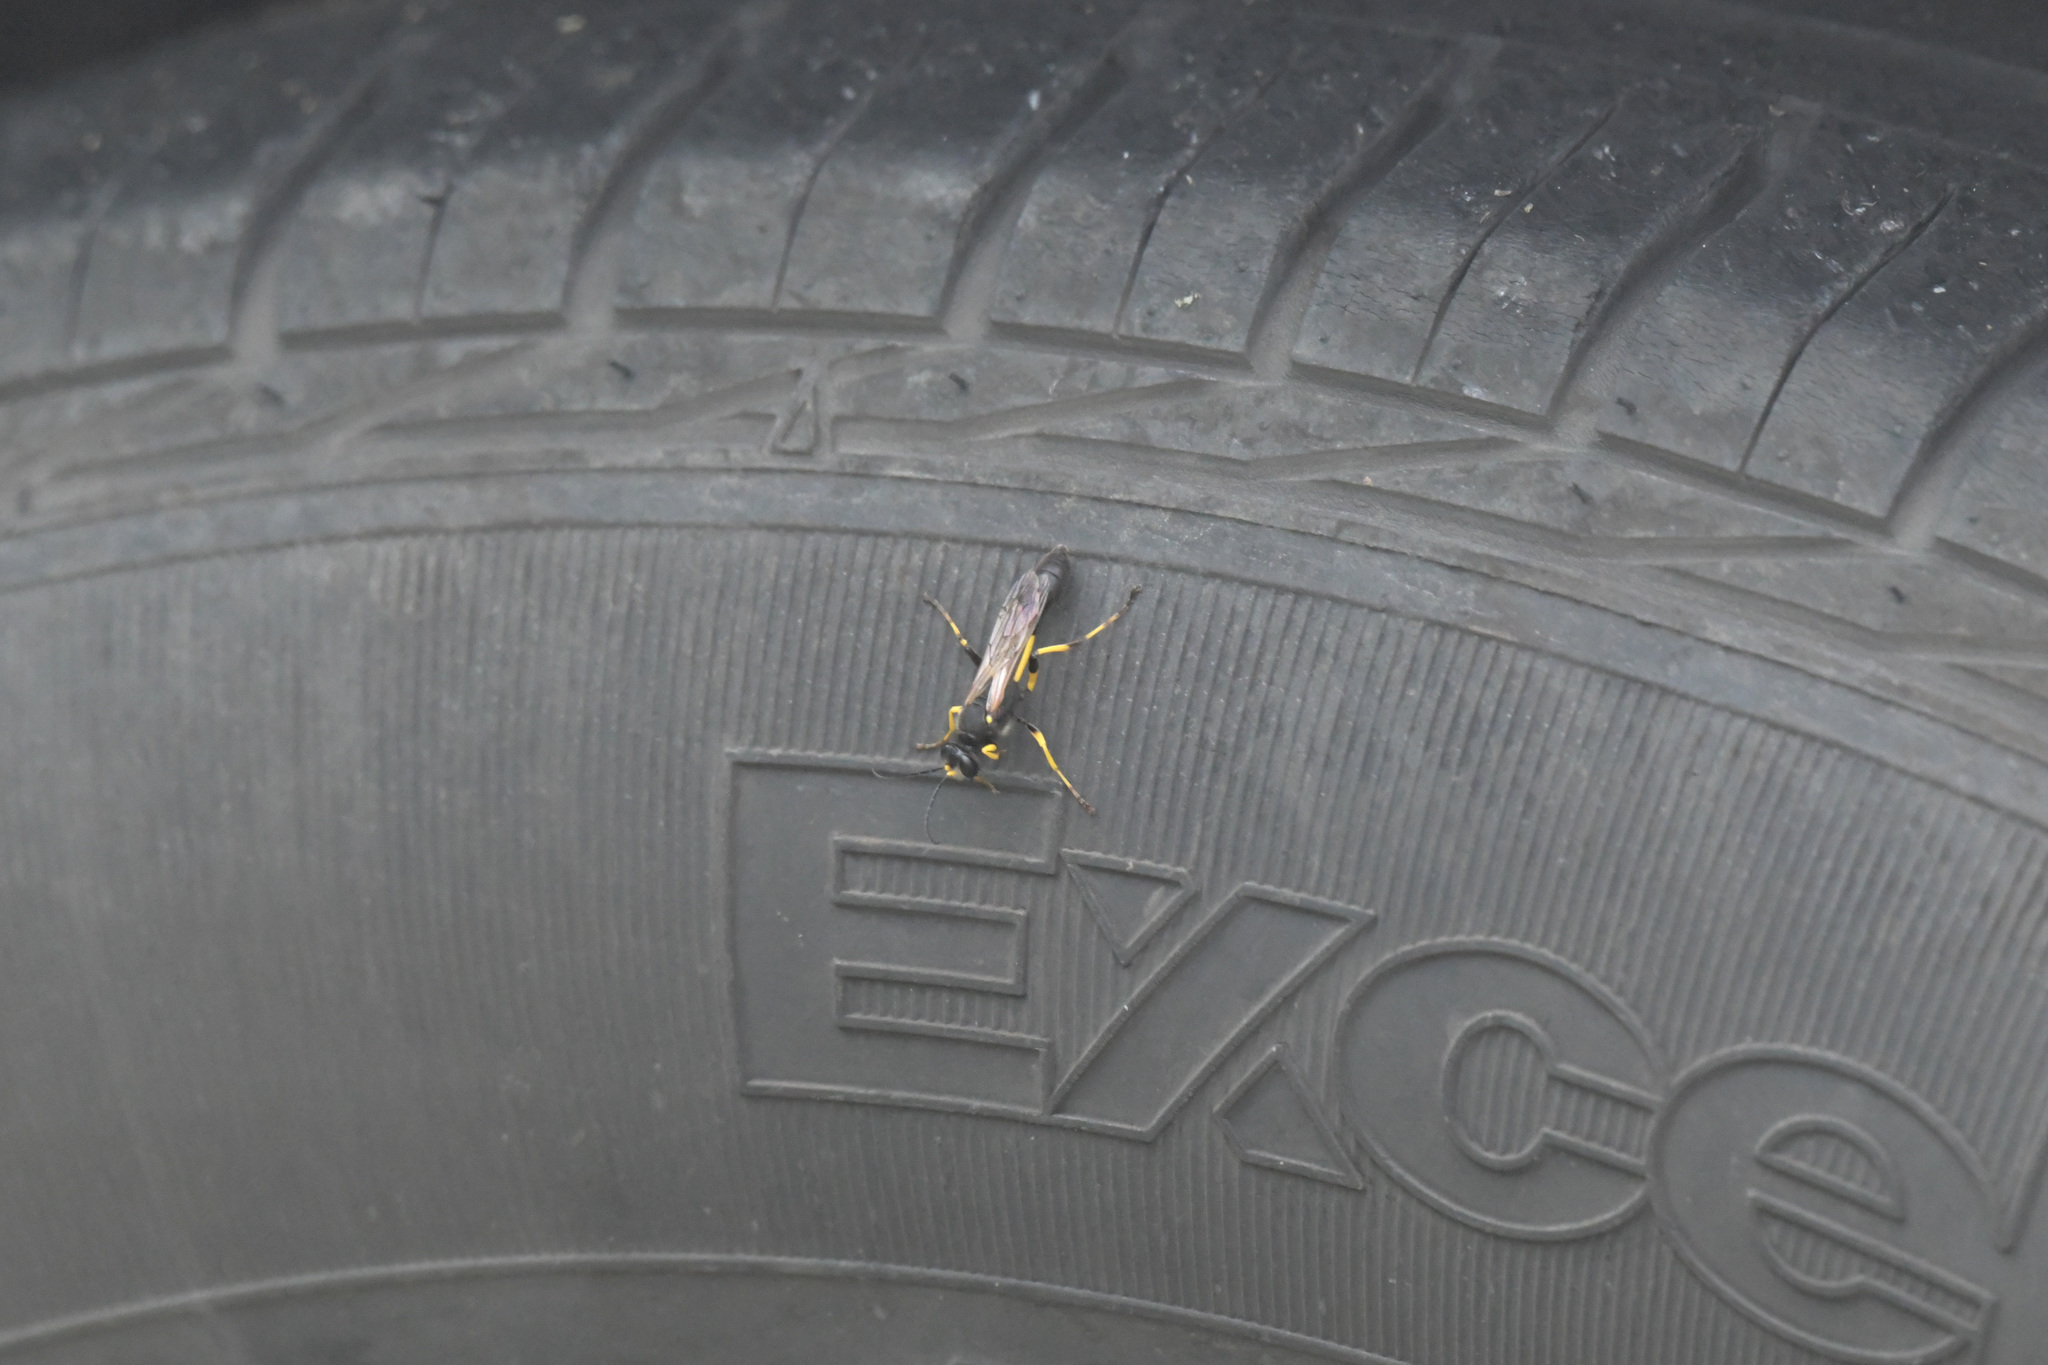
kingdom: Animalia
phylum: Arthropoda
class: Insecta
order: Hymenoptera
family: Sphecidae
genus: Sceliphron
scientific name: Sceliphron madraspatanum
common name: Mud dauber
